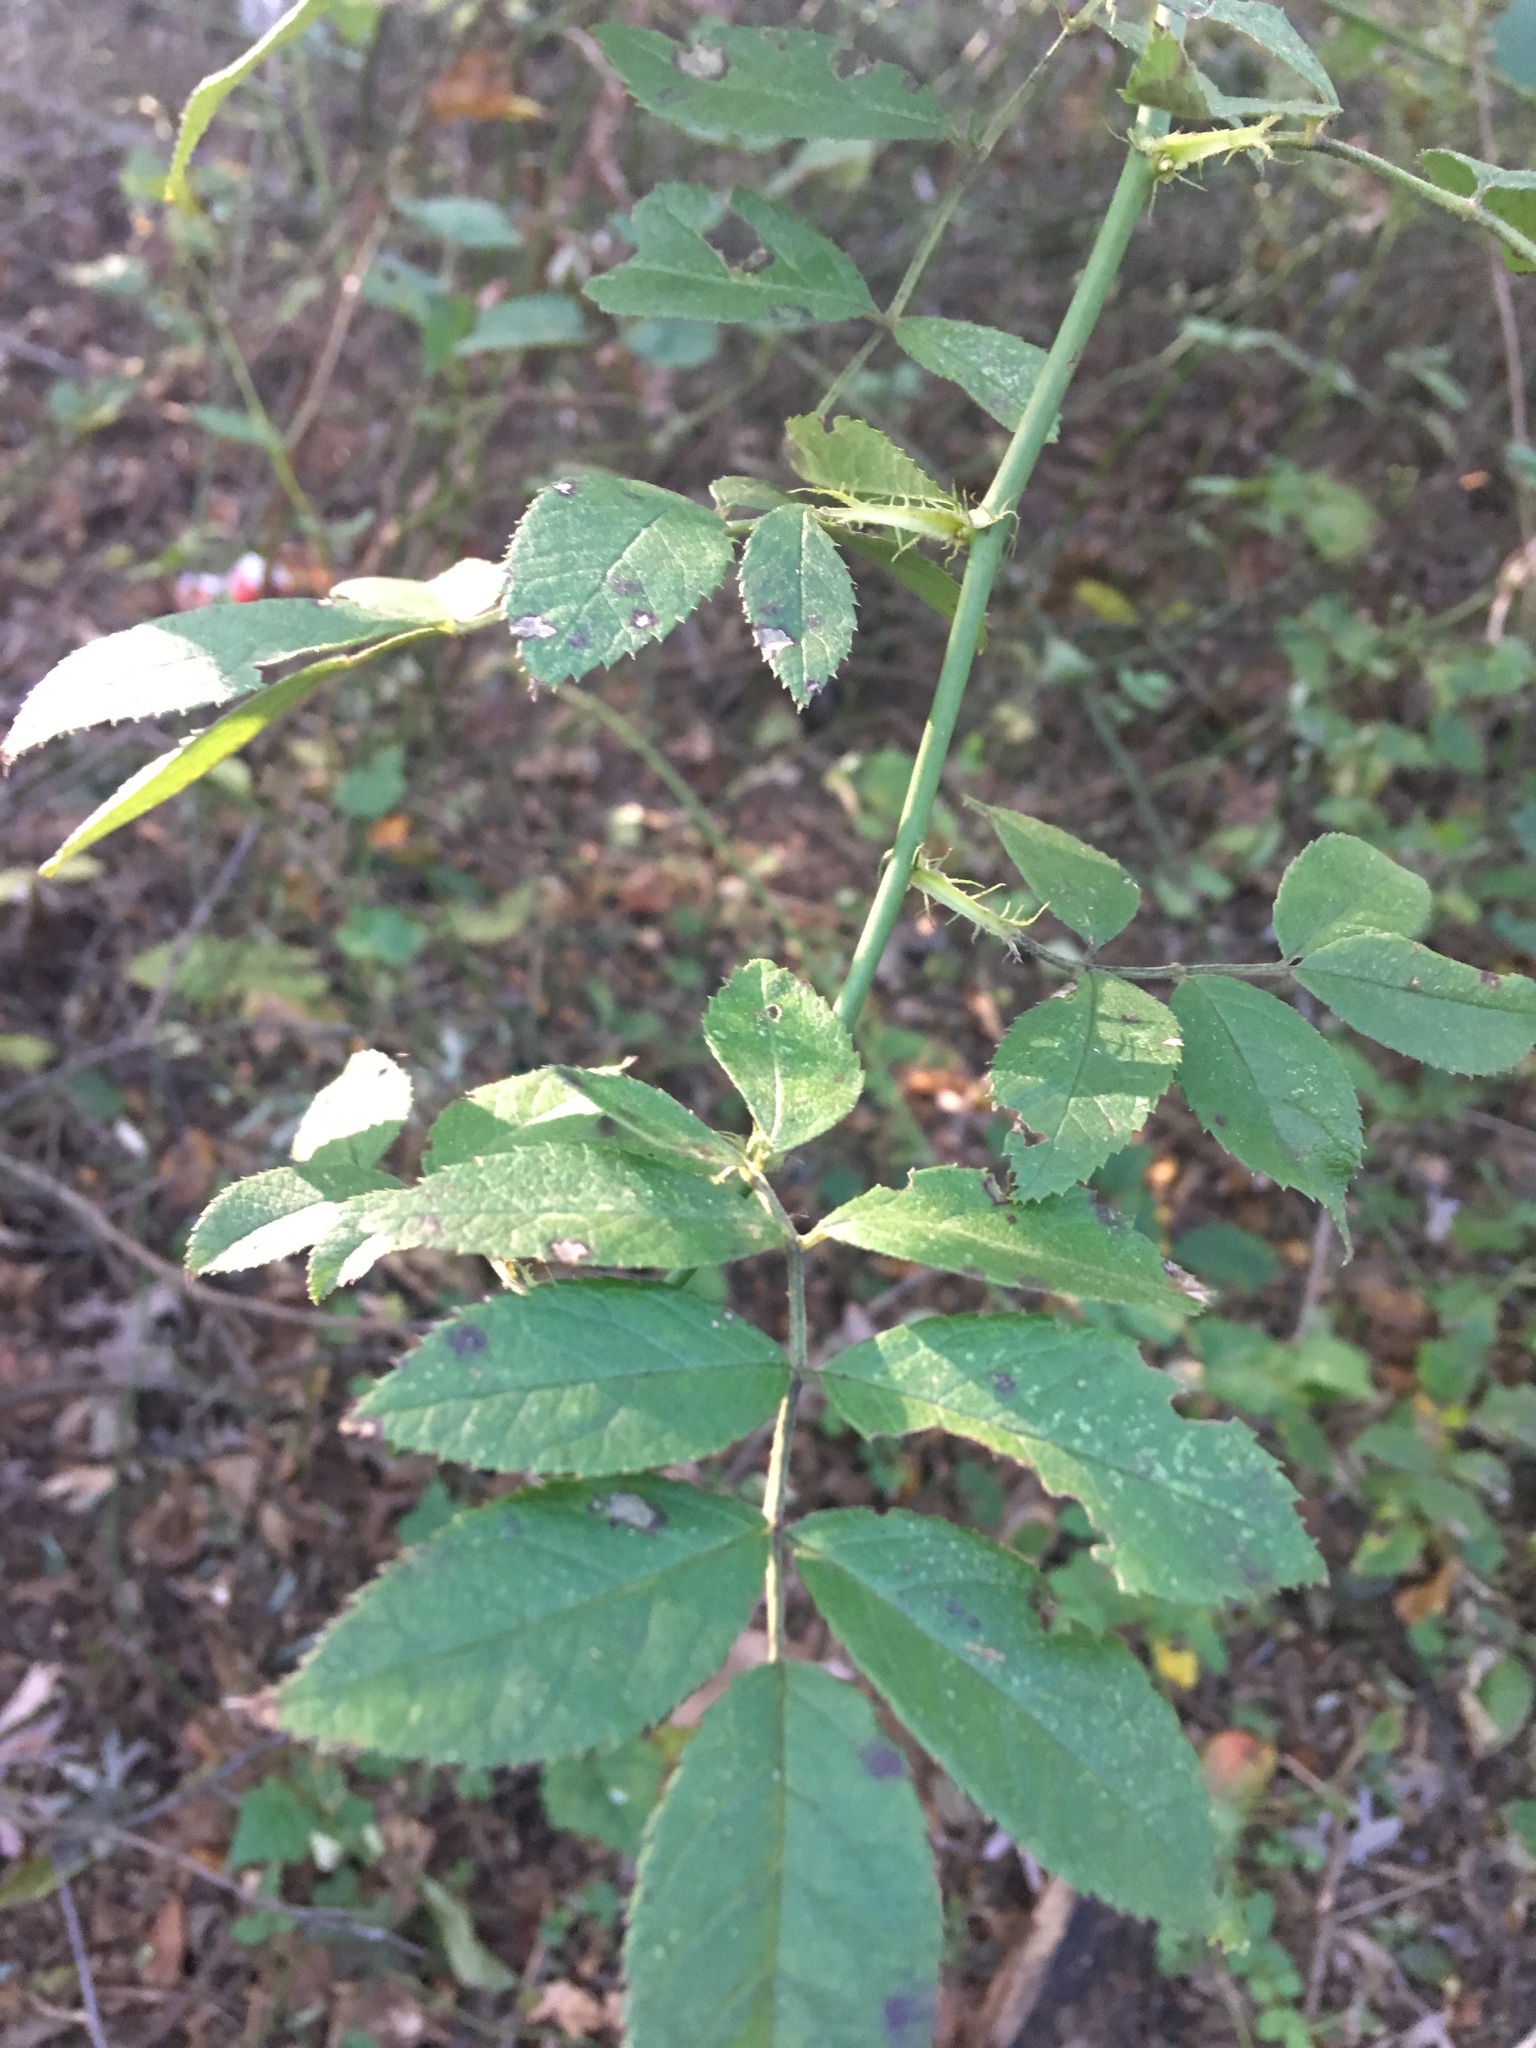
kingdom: Plantae
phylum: Tracheophyta
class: Magnoliopsida
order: Rosales
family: Rosaceae
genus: Rosa
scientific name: Rosa multiflora
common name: Multiflora rose
